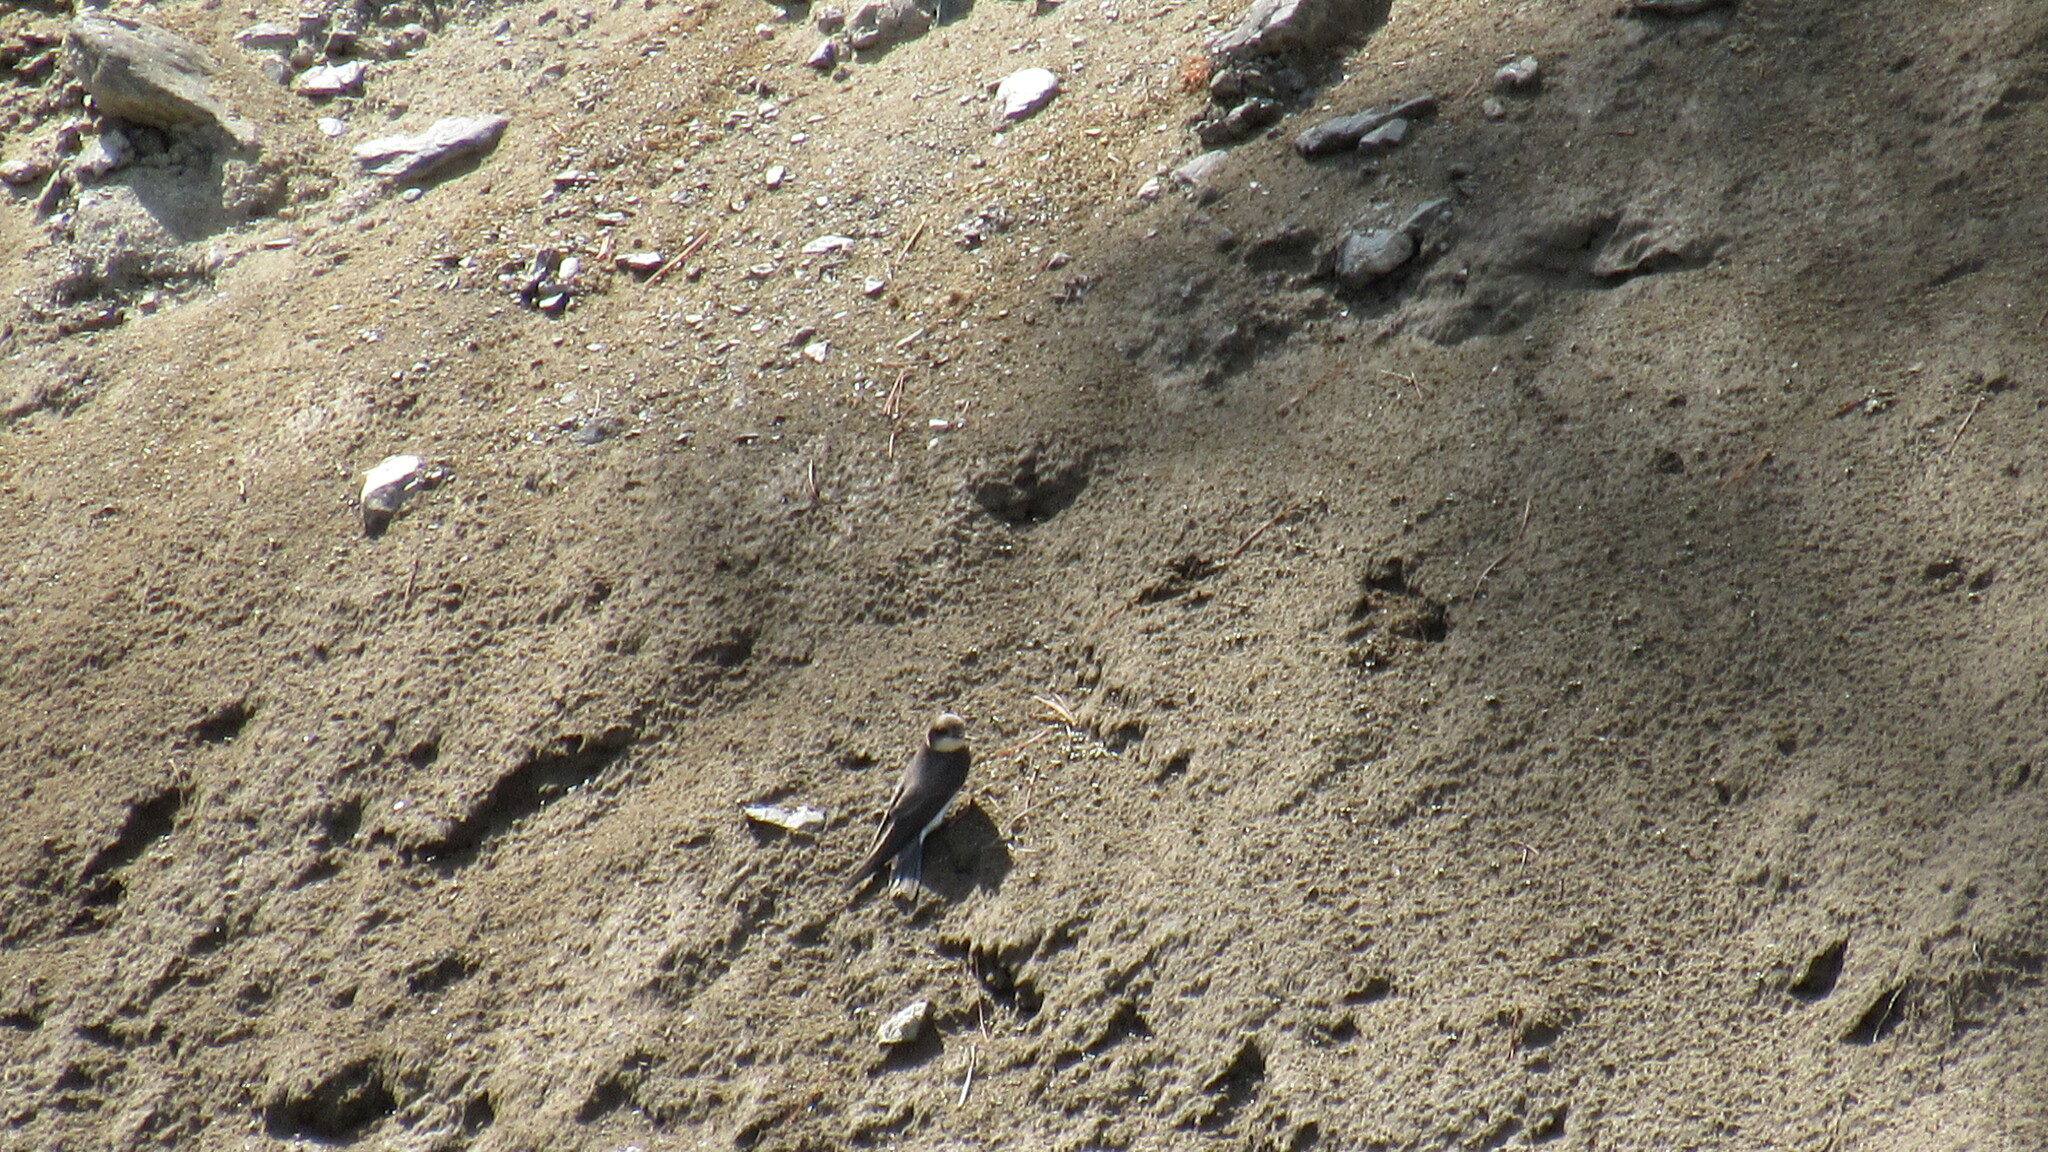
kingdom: Animalia
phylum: Chordata
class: Aves
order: Passeriformes
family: Hirundinidae
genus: Riparia
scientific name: Riparia riparia
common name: Sand martin
